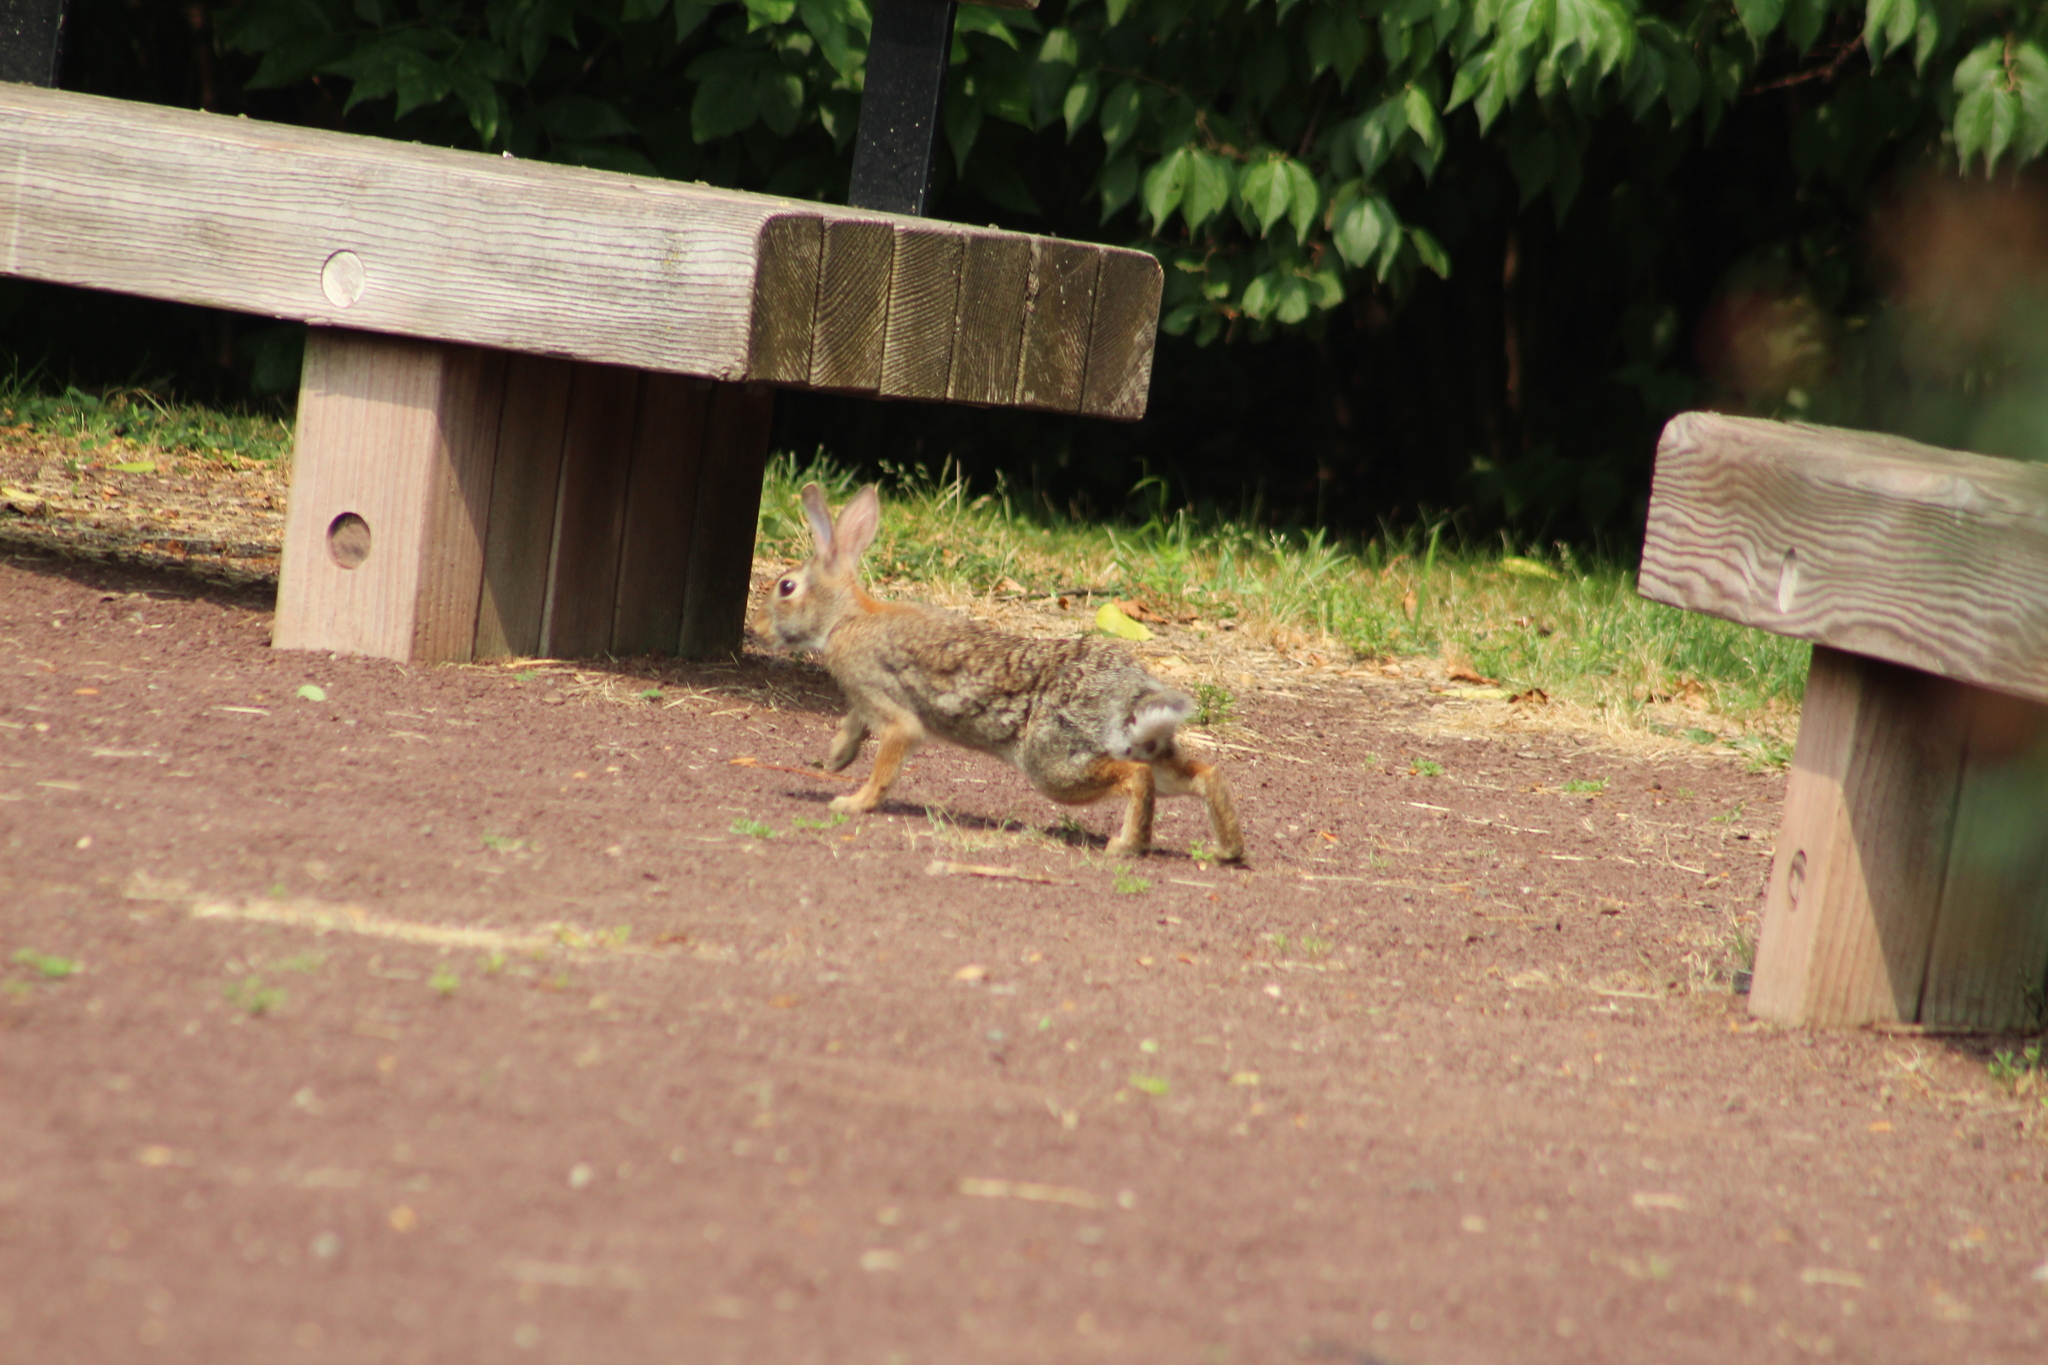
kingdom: Animalia
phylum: Chordata
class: Mammalia
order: Lagomorpha
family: Leporidae
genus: Sylvilagus
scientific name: Sylvilagus floridanus
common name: Eastern cottontail
